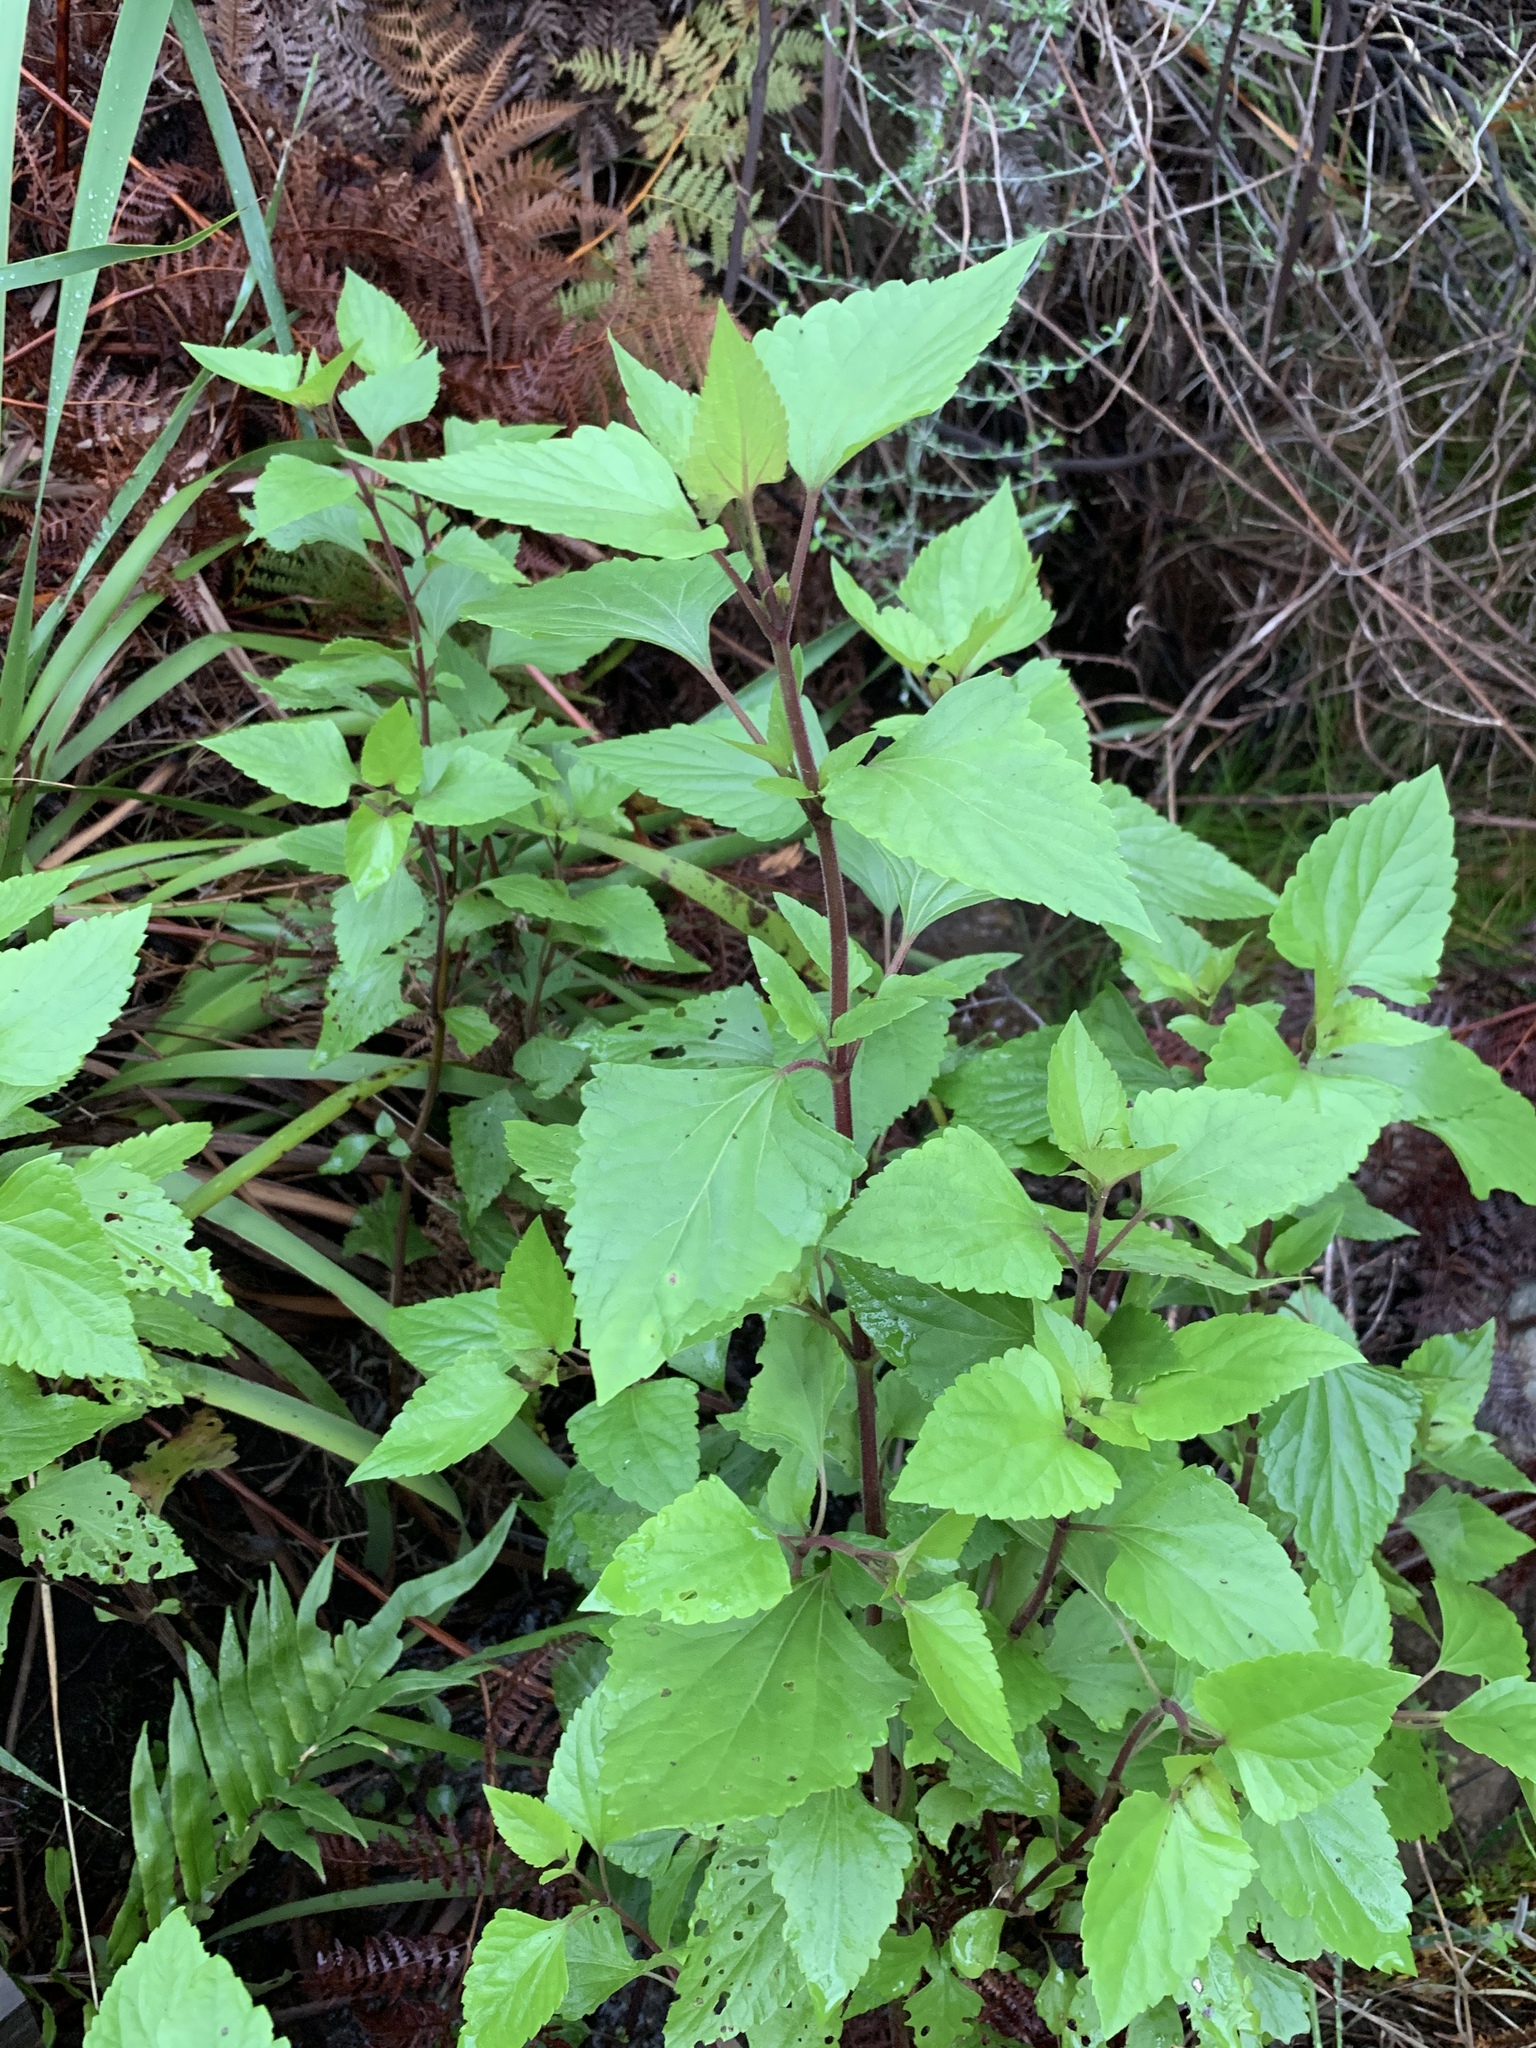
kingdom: Plantae
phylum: Tracheophyta
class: Magnoliopsida
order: Asterales
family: Asteraceae
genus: Ageratina
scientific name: Ageratina adenophora
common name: Sticky snakeroot
